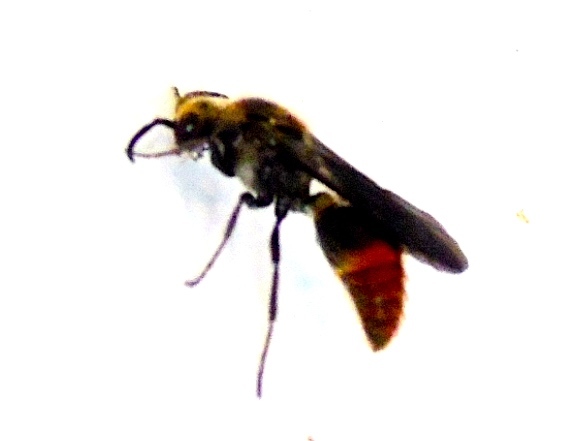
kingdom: Animalia
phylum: Arthropoda
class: Insecta
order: Hymenoptera
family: Mutillidae
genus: Ephuta
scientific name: Ephuta
